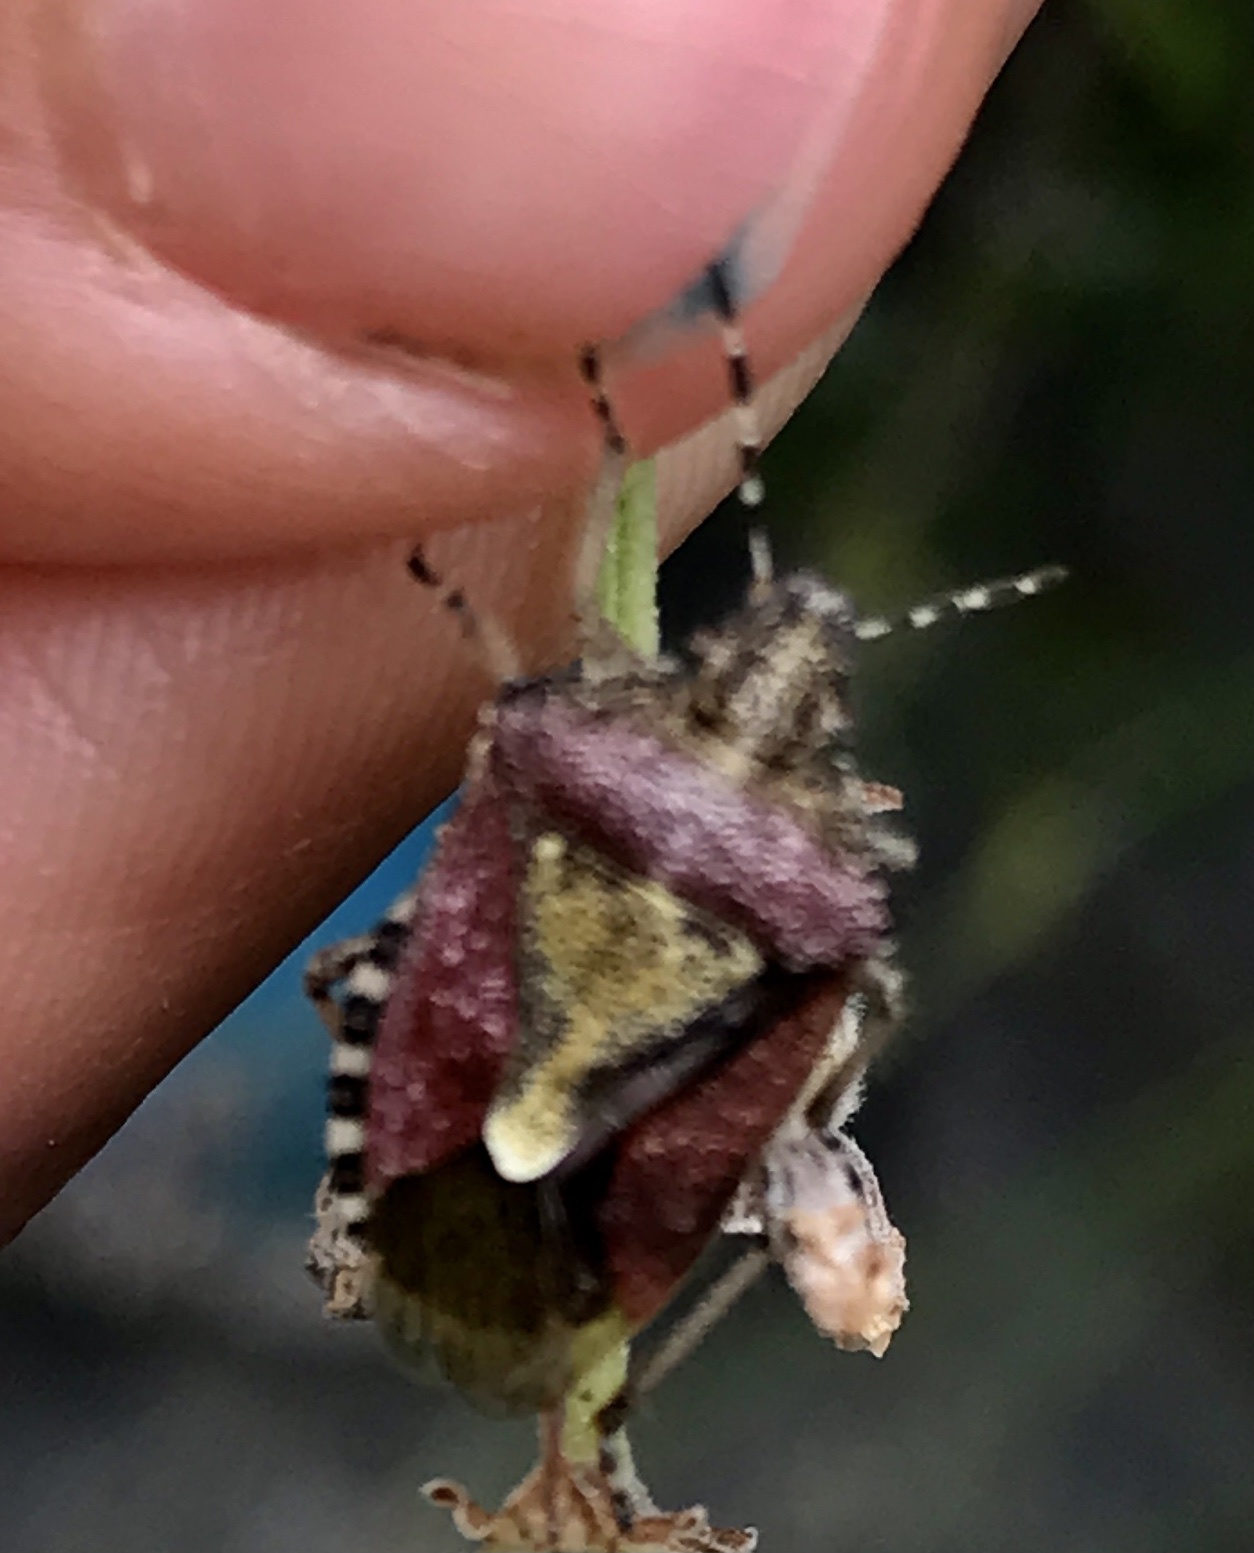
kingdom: Animalia
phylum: Arthropoda
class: Insecta
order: Hemiptera
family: Pentatomidae
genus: Dolycoris
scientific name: Dolycoris baccarum
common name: Sloe bug
